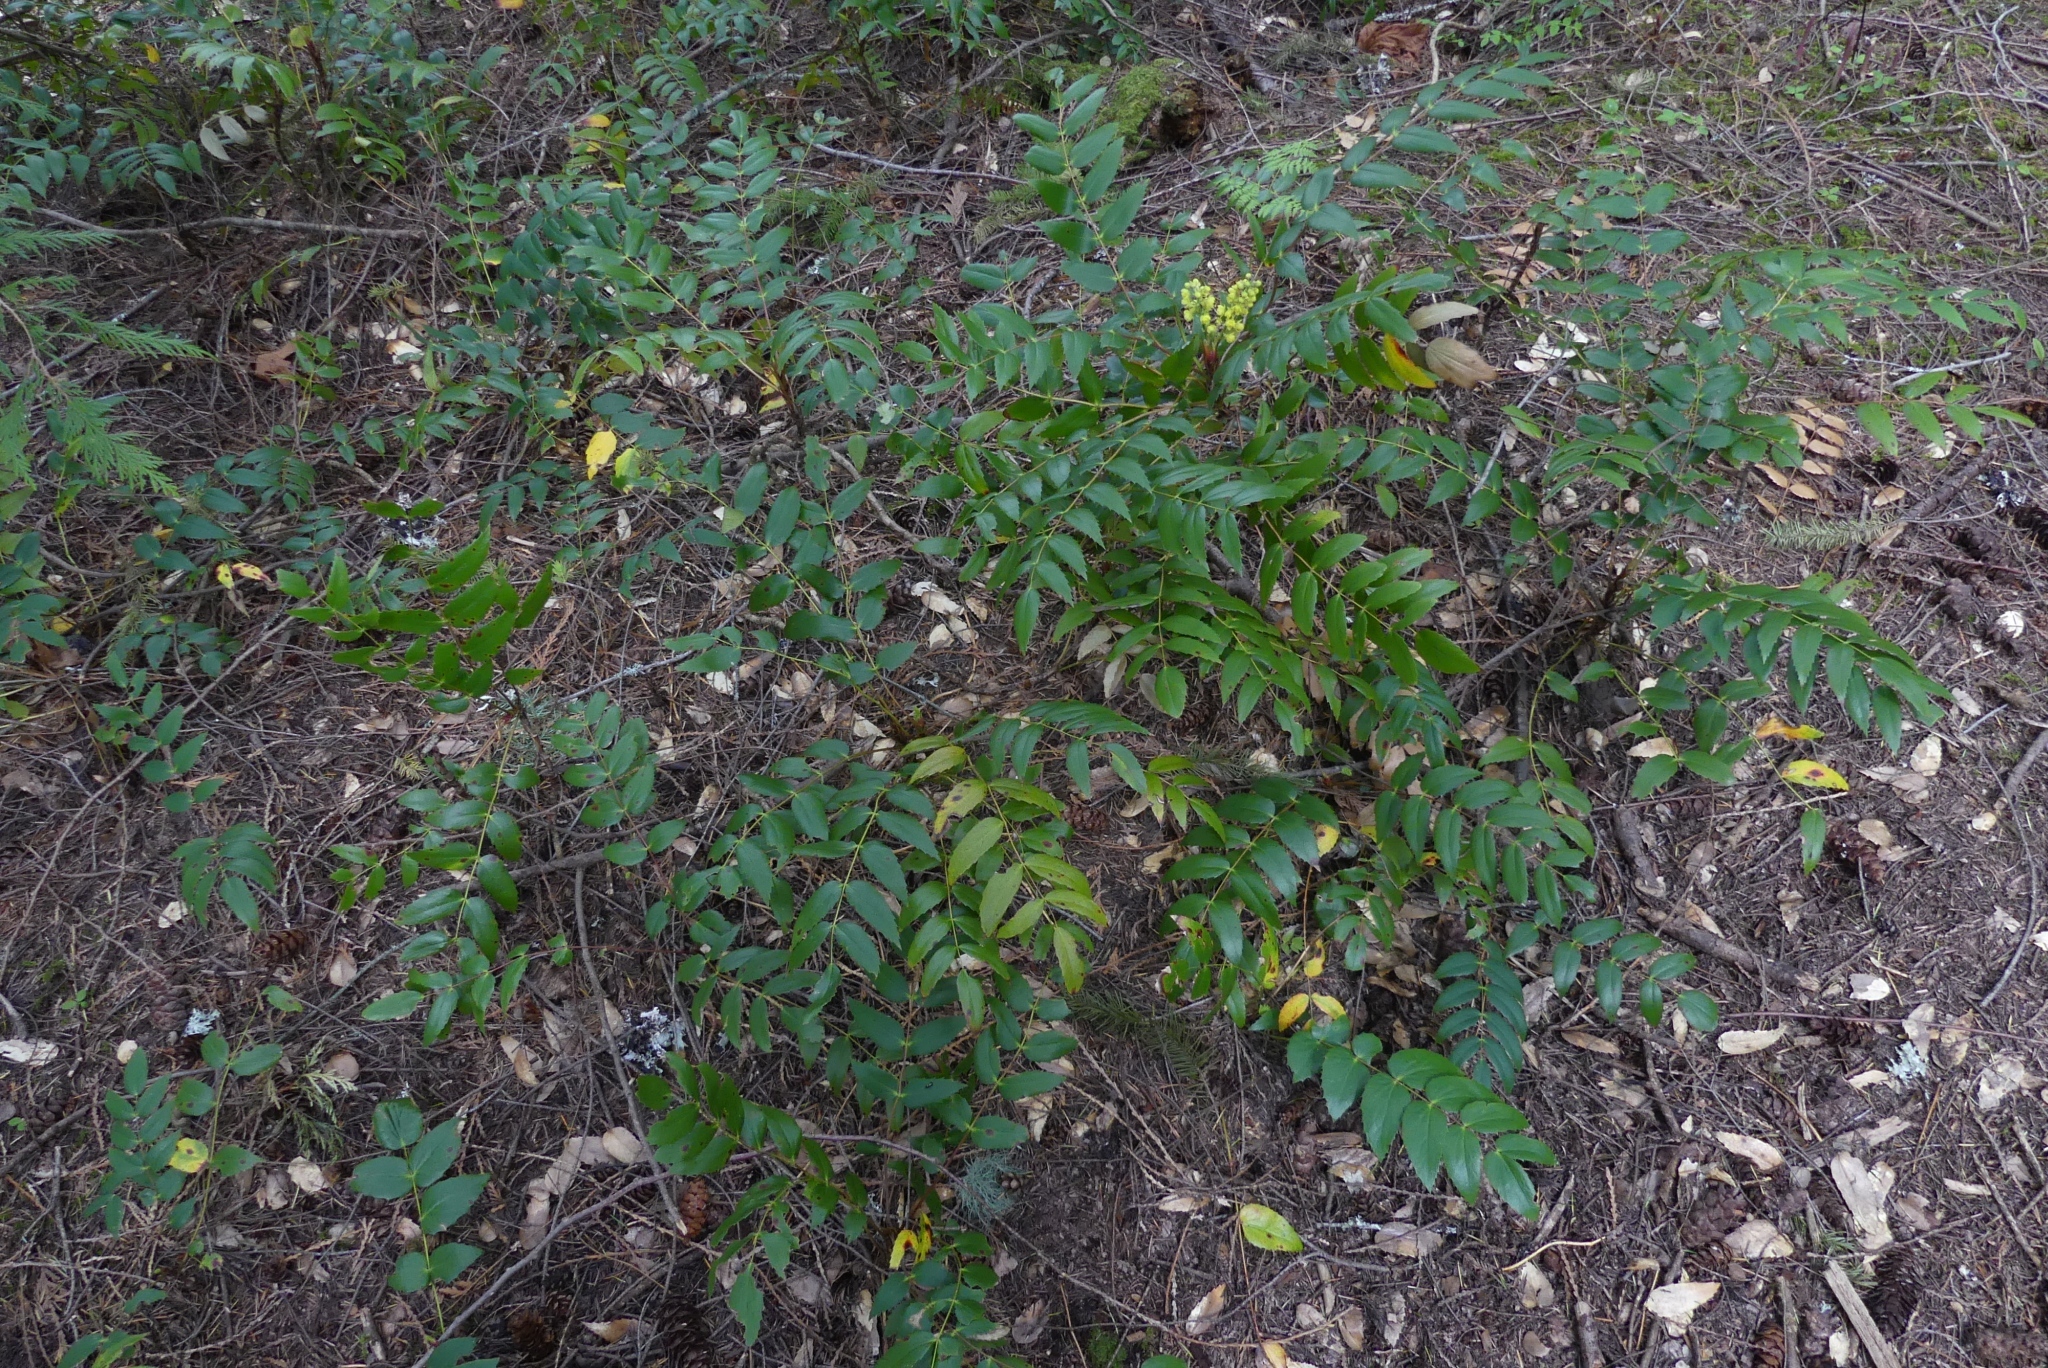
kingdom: Plantae
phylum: Tracheophyta
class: Magnoliopsida
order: Ranunculales
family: Berberidaceae
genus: Mahonia
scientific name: Mahonia nervosa
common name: Cascade oregon-grape
